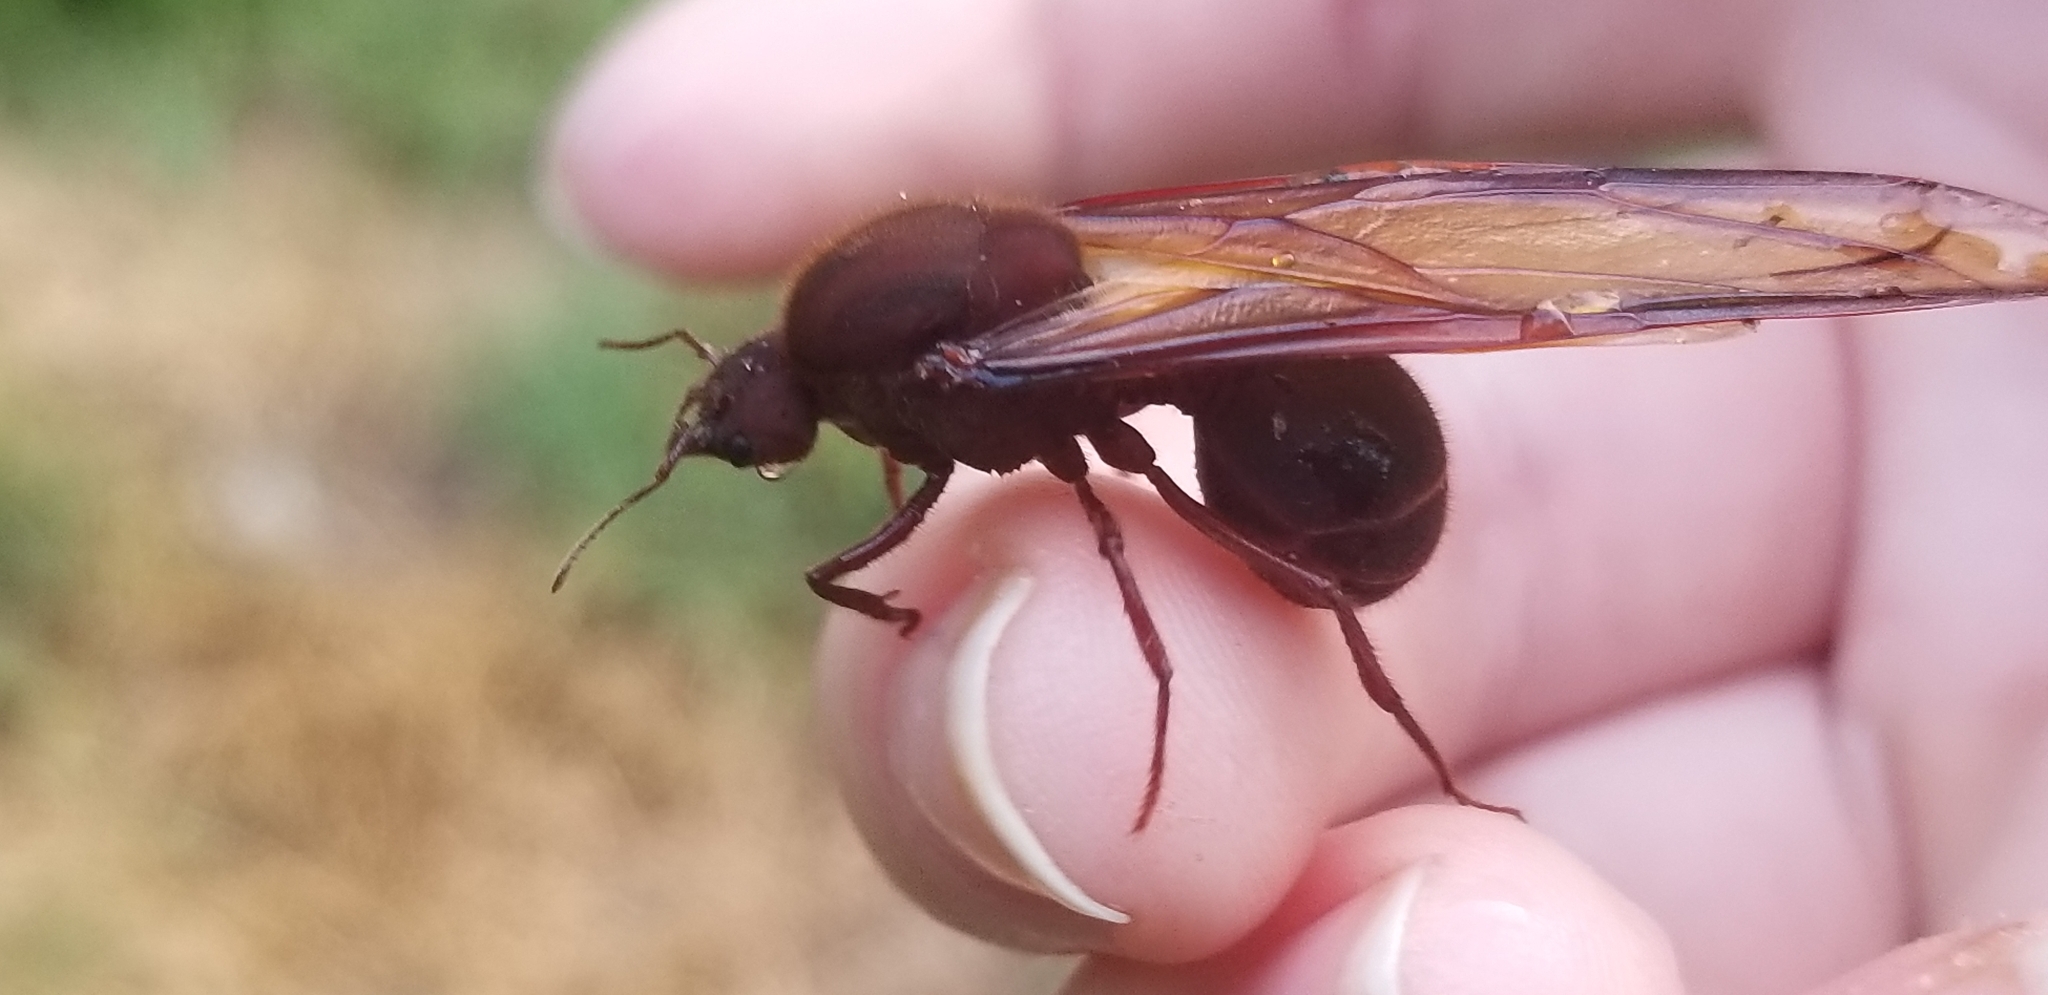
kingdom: Animalia
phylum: Arthropoda
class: Insecta
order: Hymenoptera
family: Formicidae
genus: Atta
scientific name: Atta texana
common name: Texas leafcutting ant
